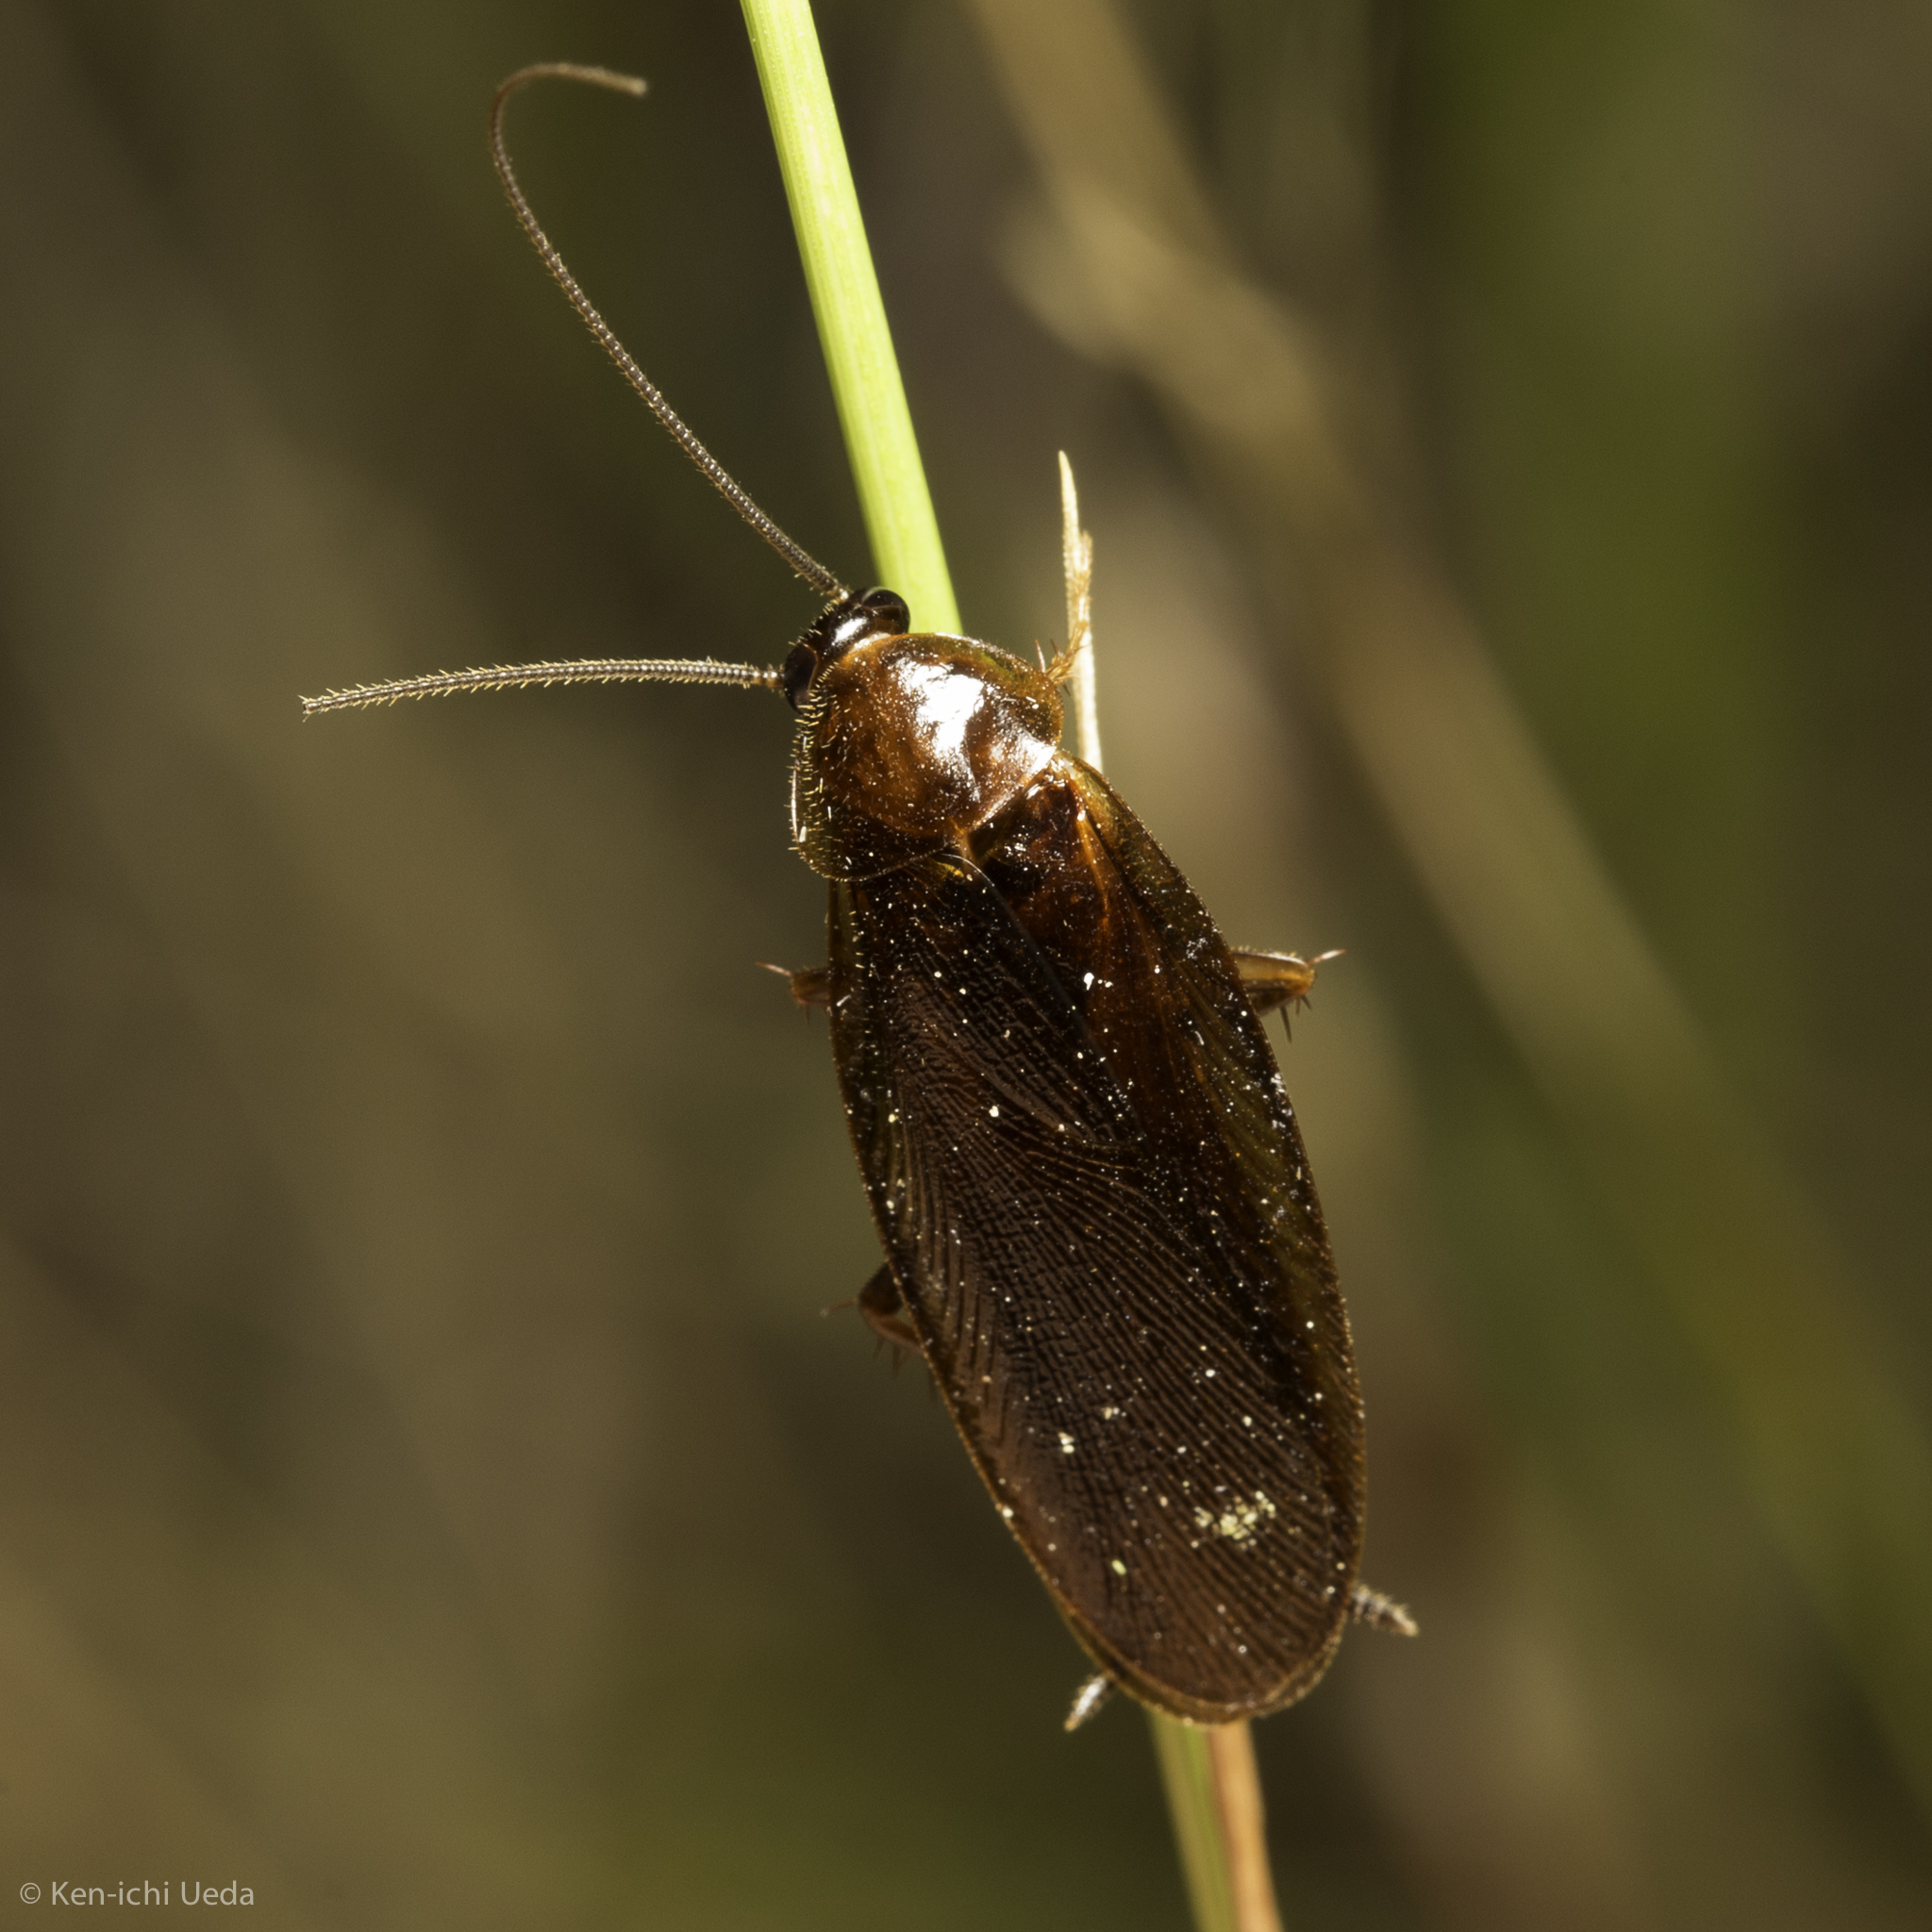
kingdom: Animalia
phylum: Arthropoda
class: Insecta
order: Blattodea
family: Ectobiidae
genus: Parcoblatta
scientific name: Parcoblatta americana
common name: Western wood cockroach
